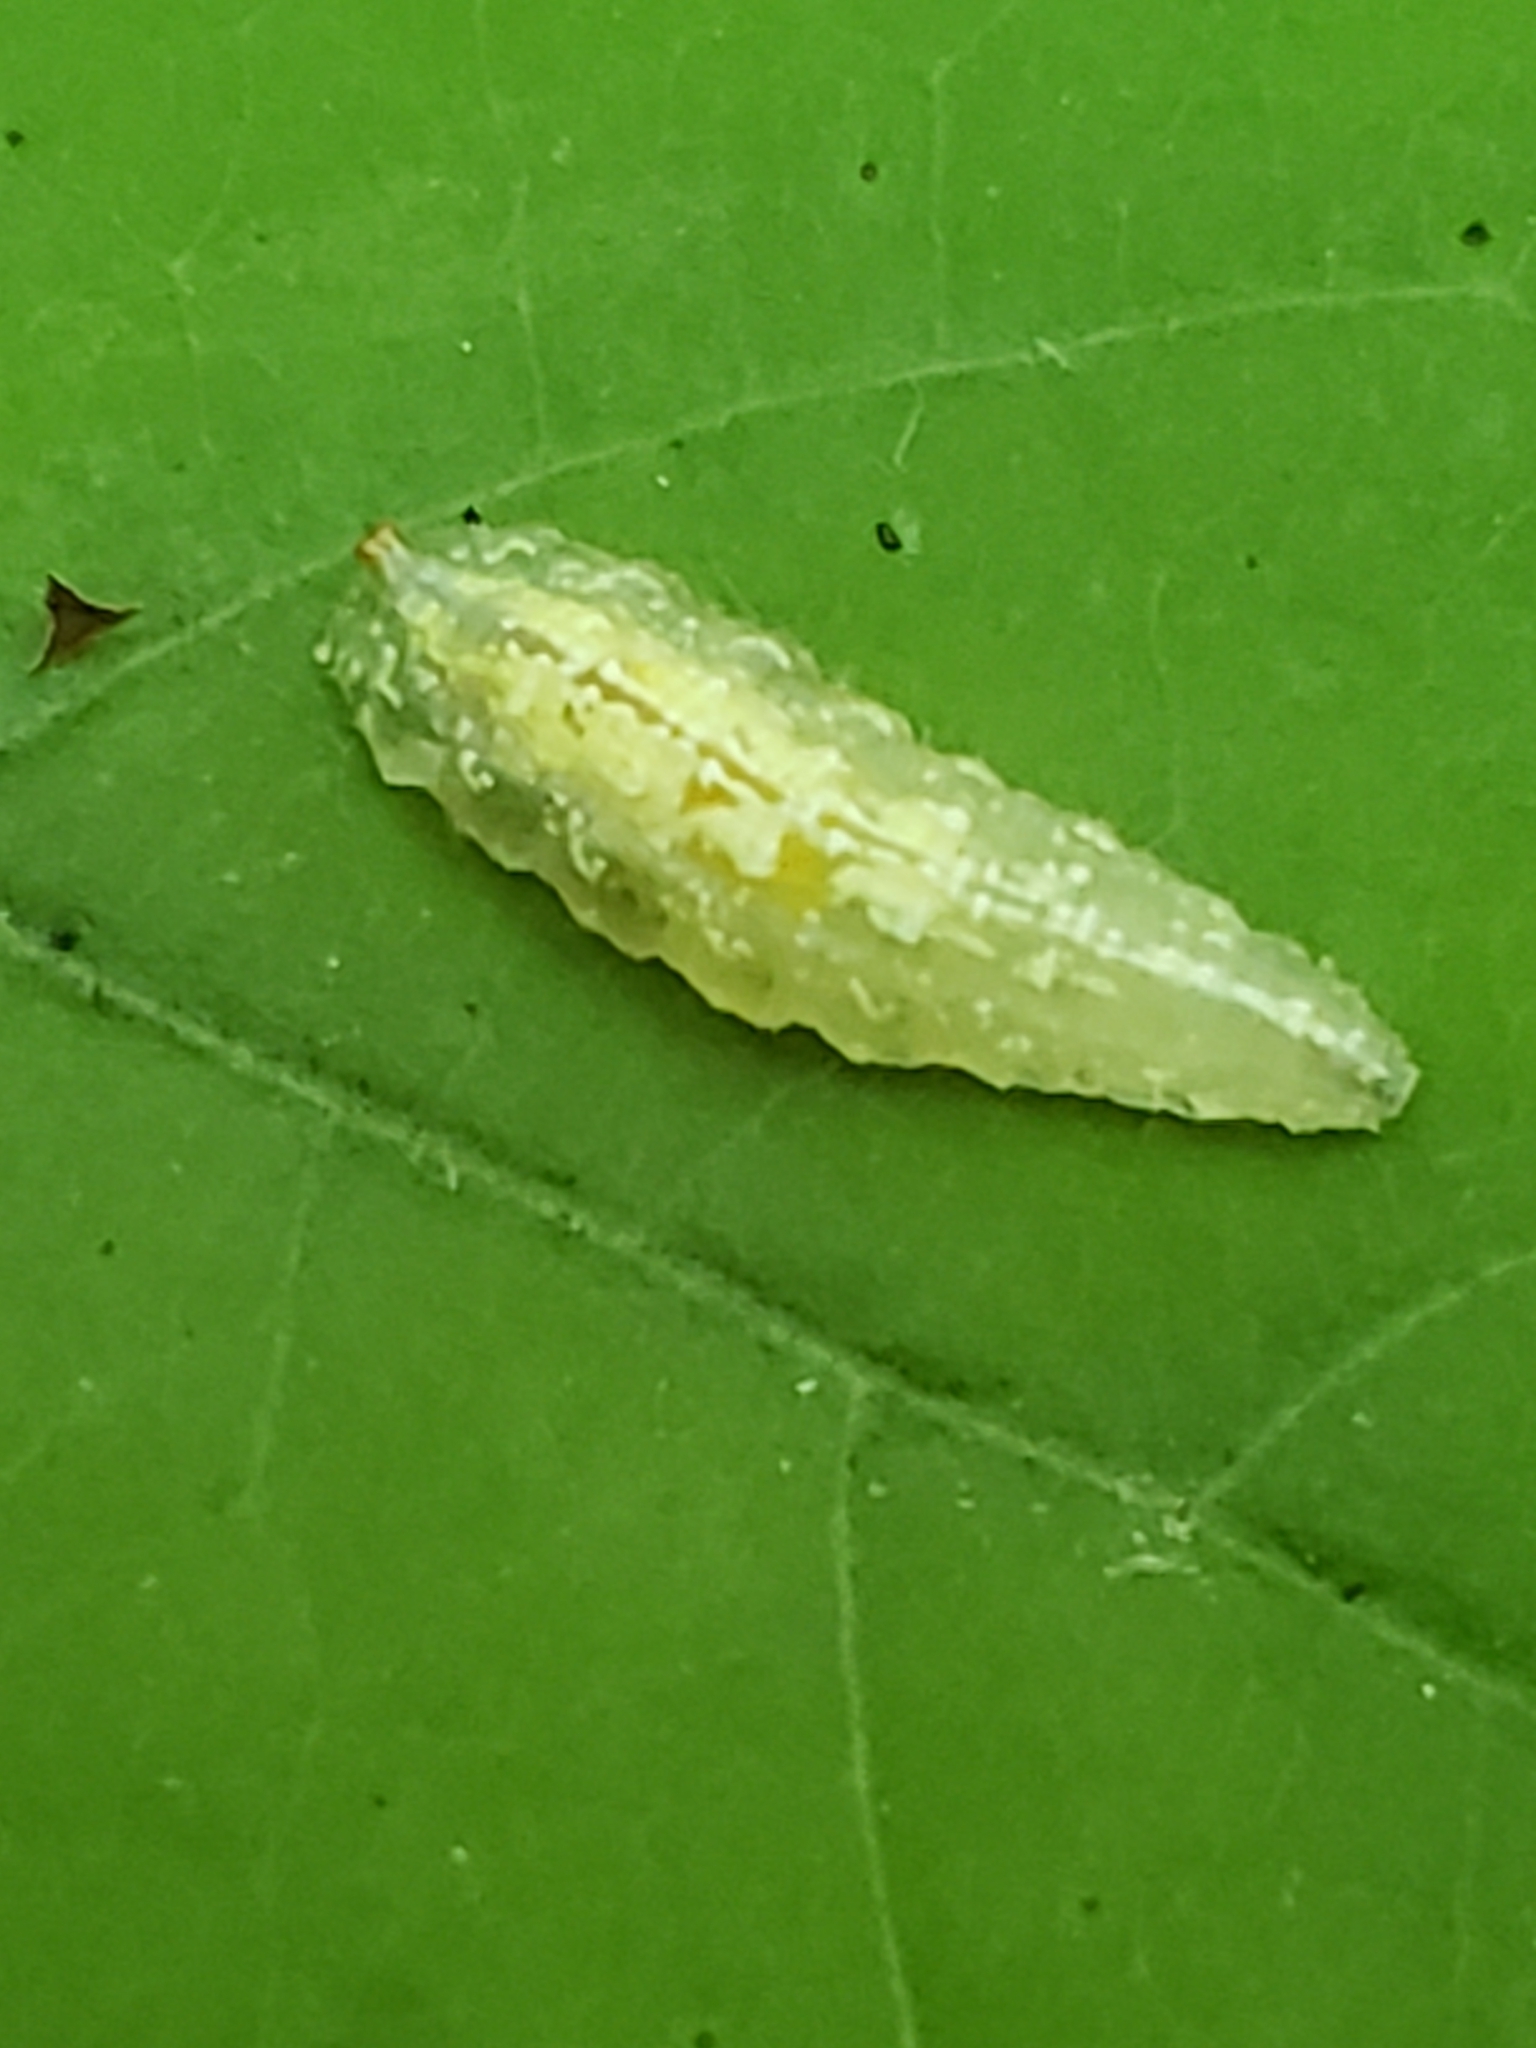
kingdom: Animalia
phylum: Arthropoda
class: Insecta
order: Diptera
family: Syrphidae
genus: Syrphus
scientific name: Syrphus
